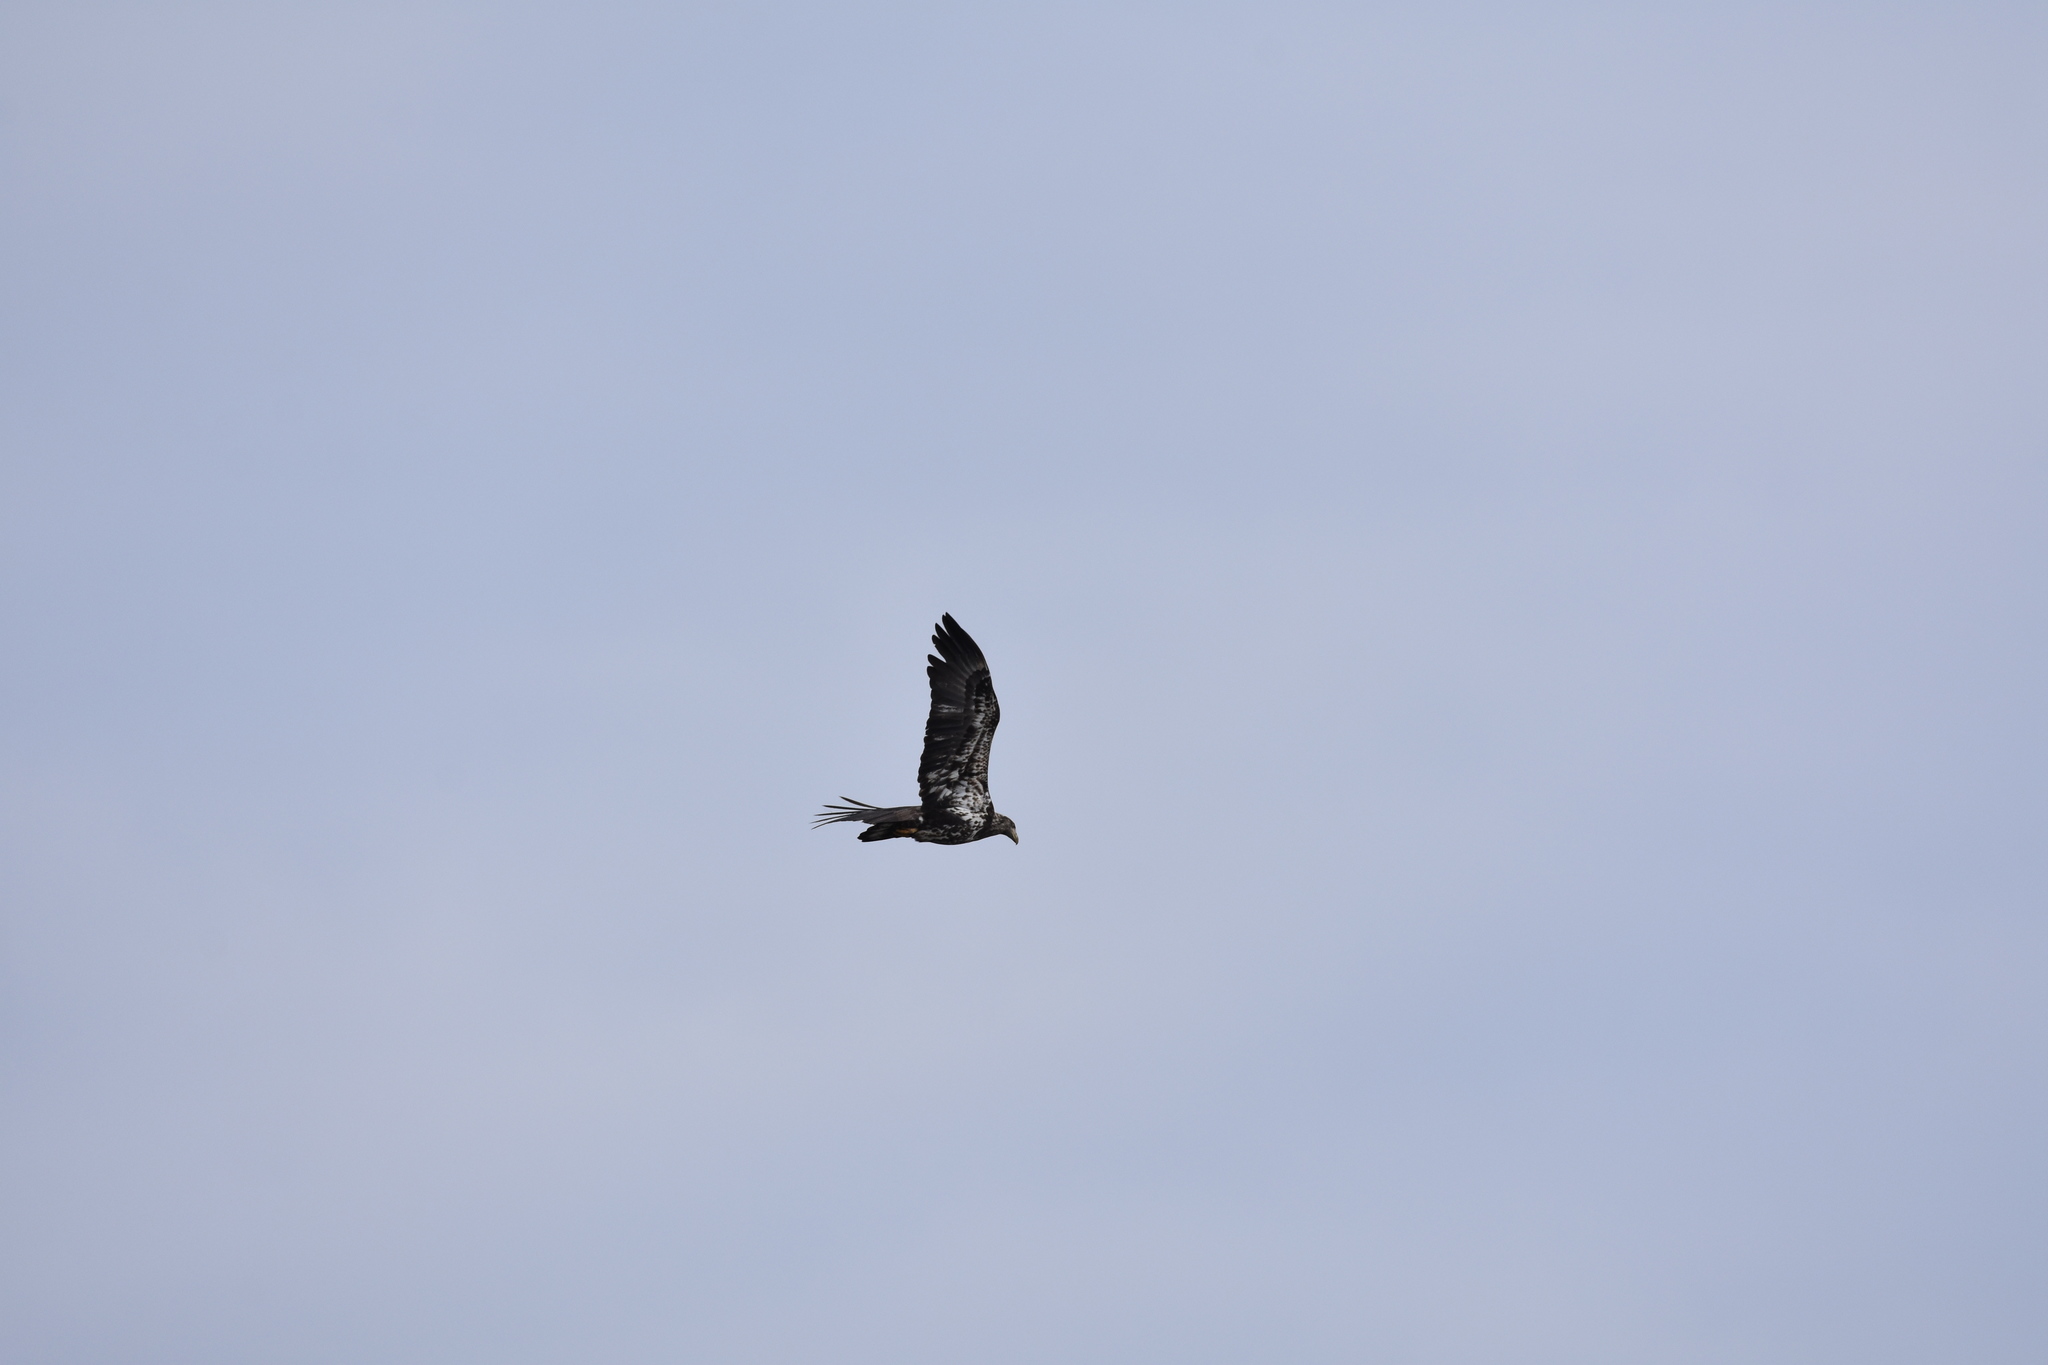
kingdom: Animalia
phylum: Chordata
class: Aves
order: Accipitriformes
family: Accipitridae
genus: Haliaeetus
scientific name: Haliaeetus leucocephalus
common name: Bald eagle
